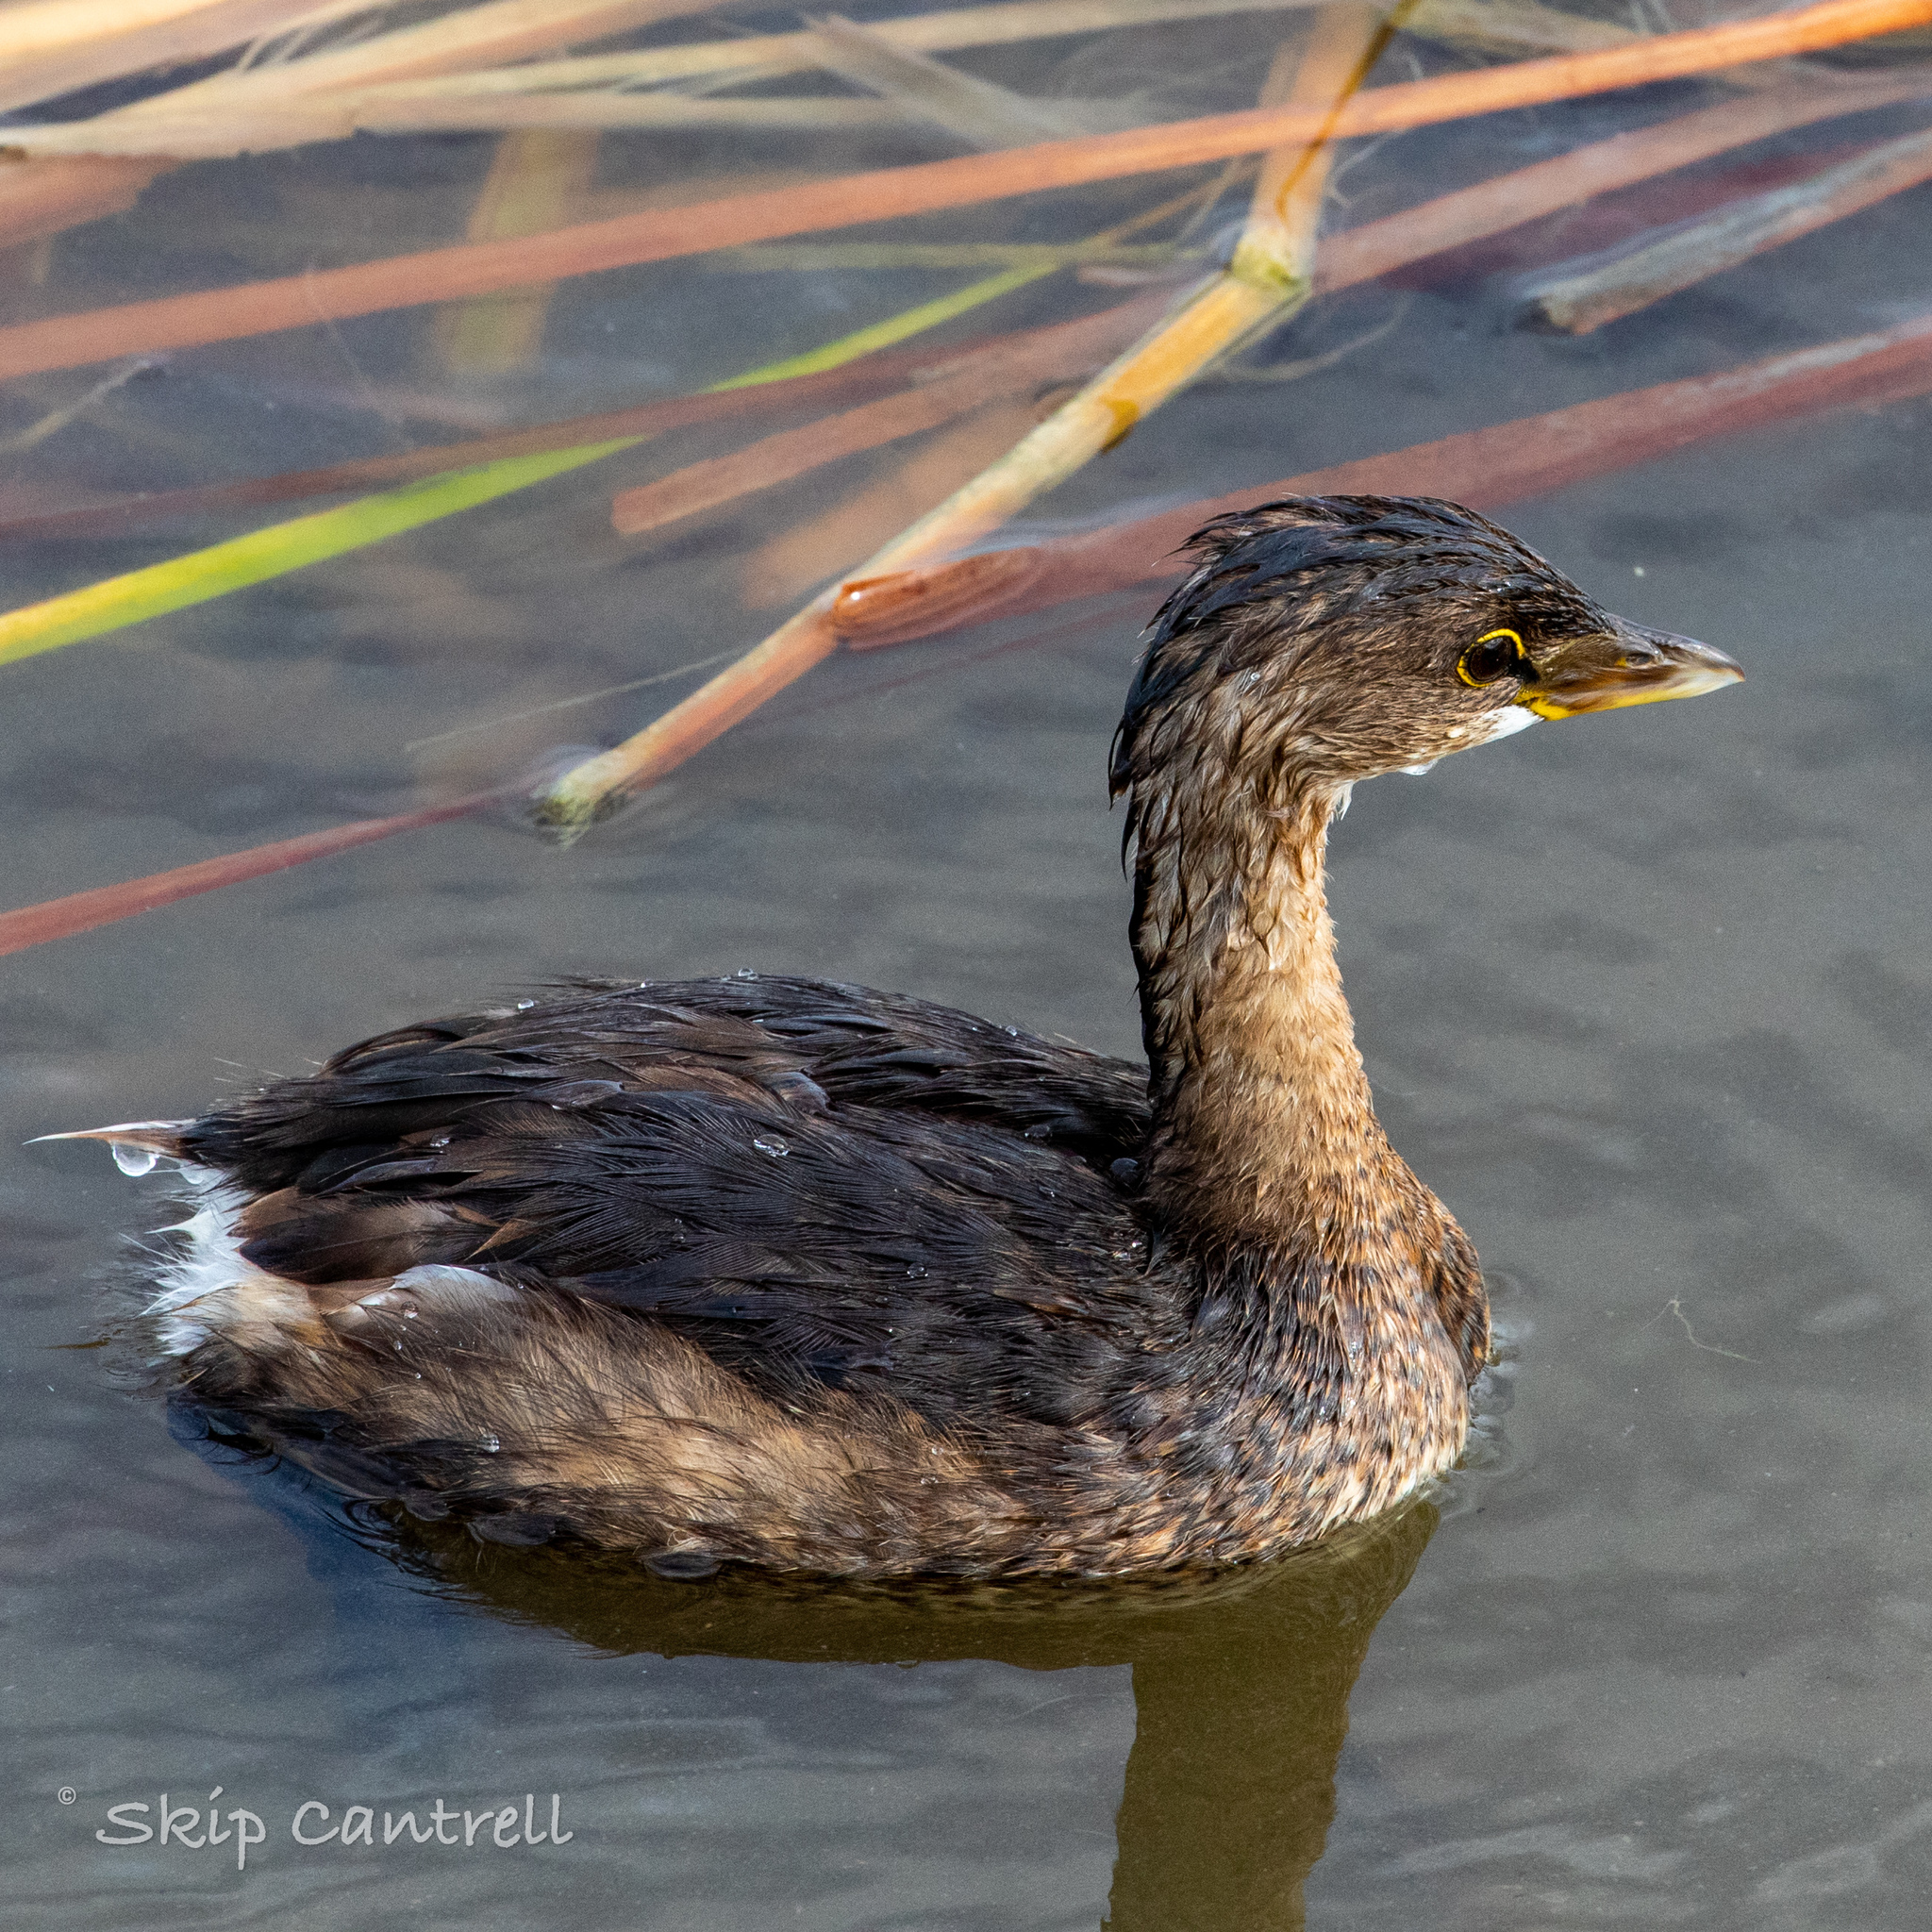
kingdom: Animalia
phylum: Chordata
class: Aves
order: Podicipediformes
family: Podicipedidae
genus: Podilymbus
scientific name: Podilymbus podiceps
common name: Pied-billed grebe
